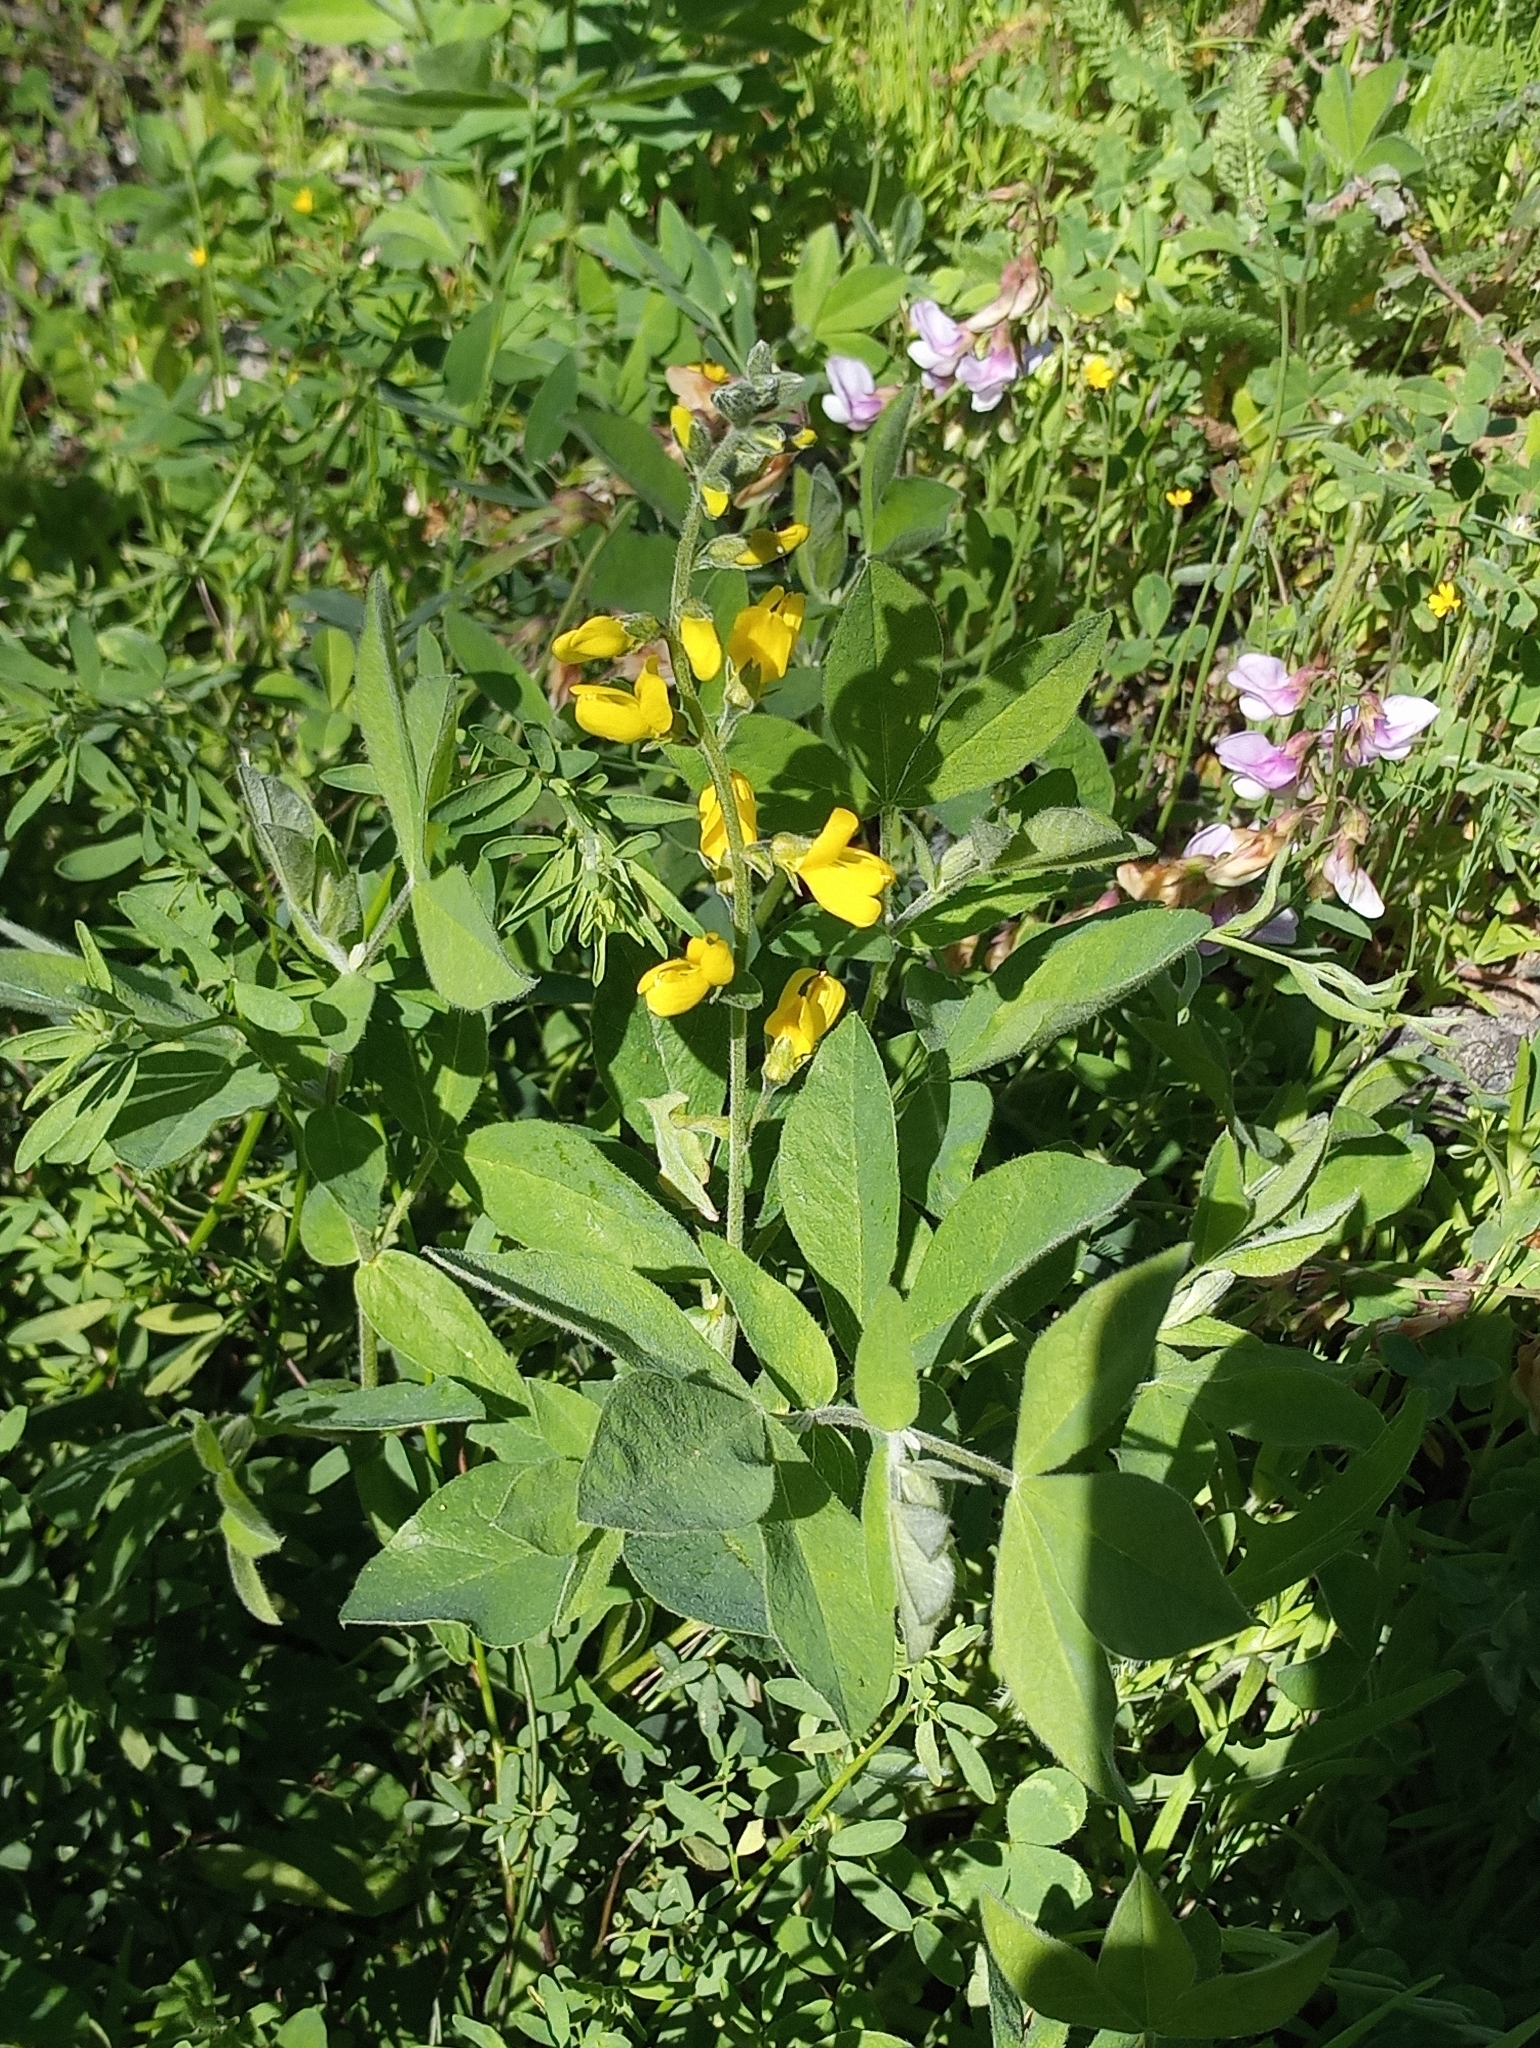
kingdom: Plantae
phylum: Tracheophyta
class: Magnoliopsida
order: Fabales
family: Fabaceae
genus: Thermopsis
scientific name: Thermopsis californica
